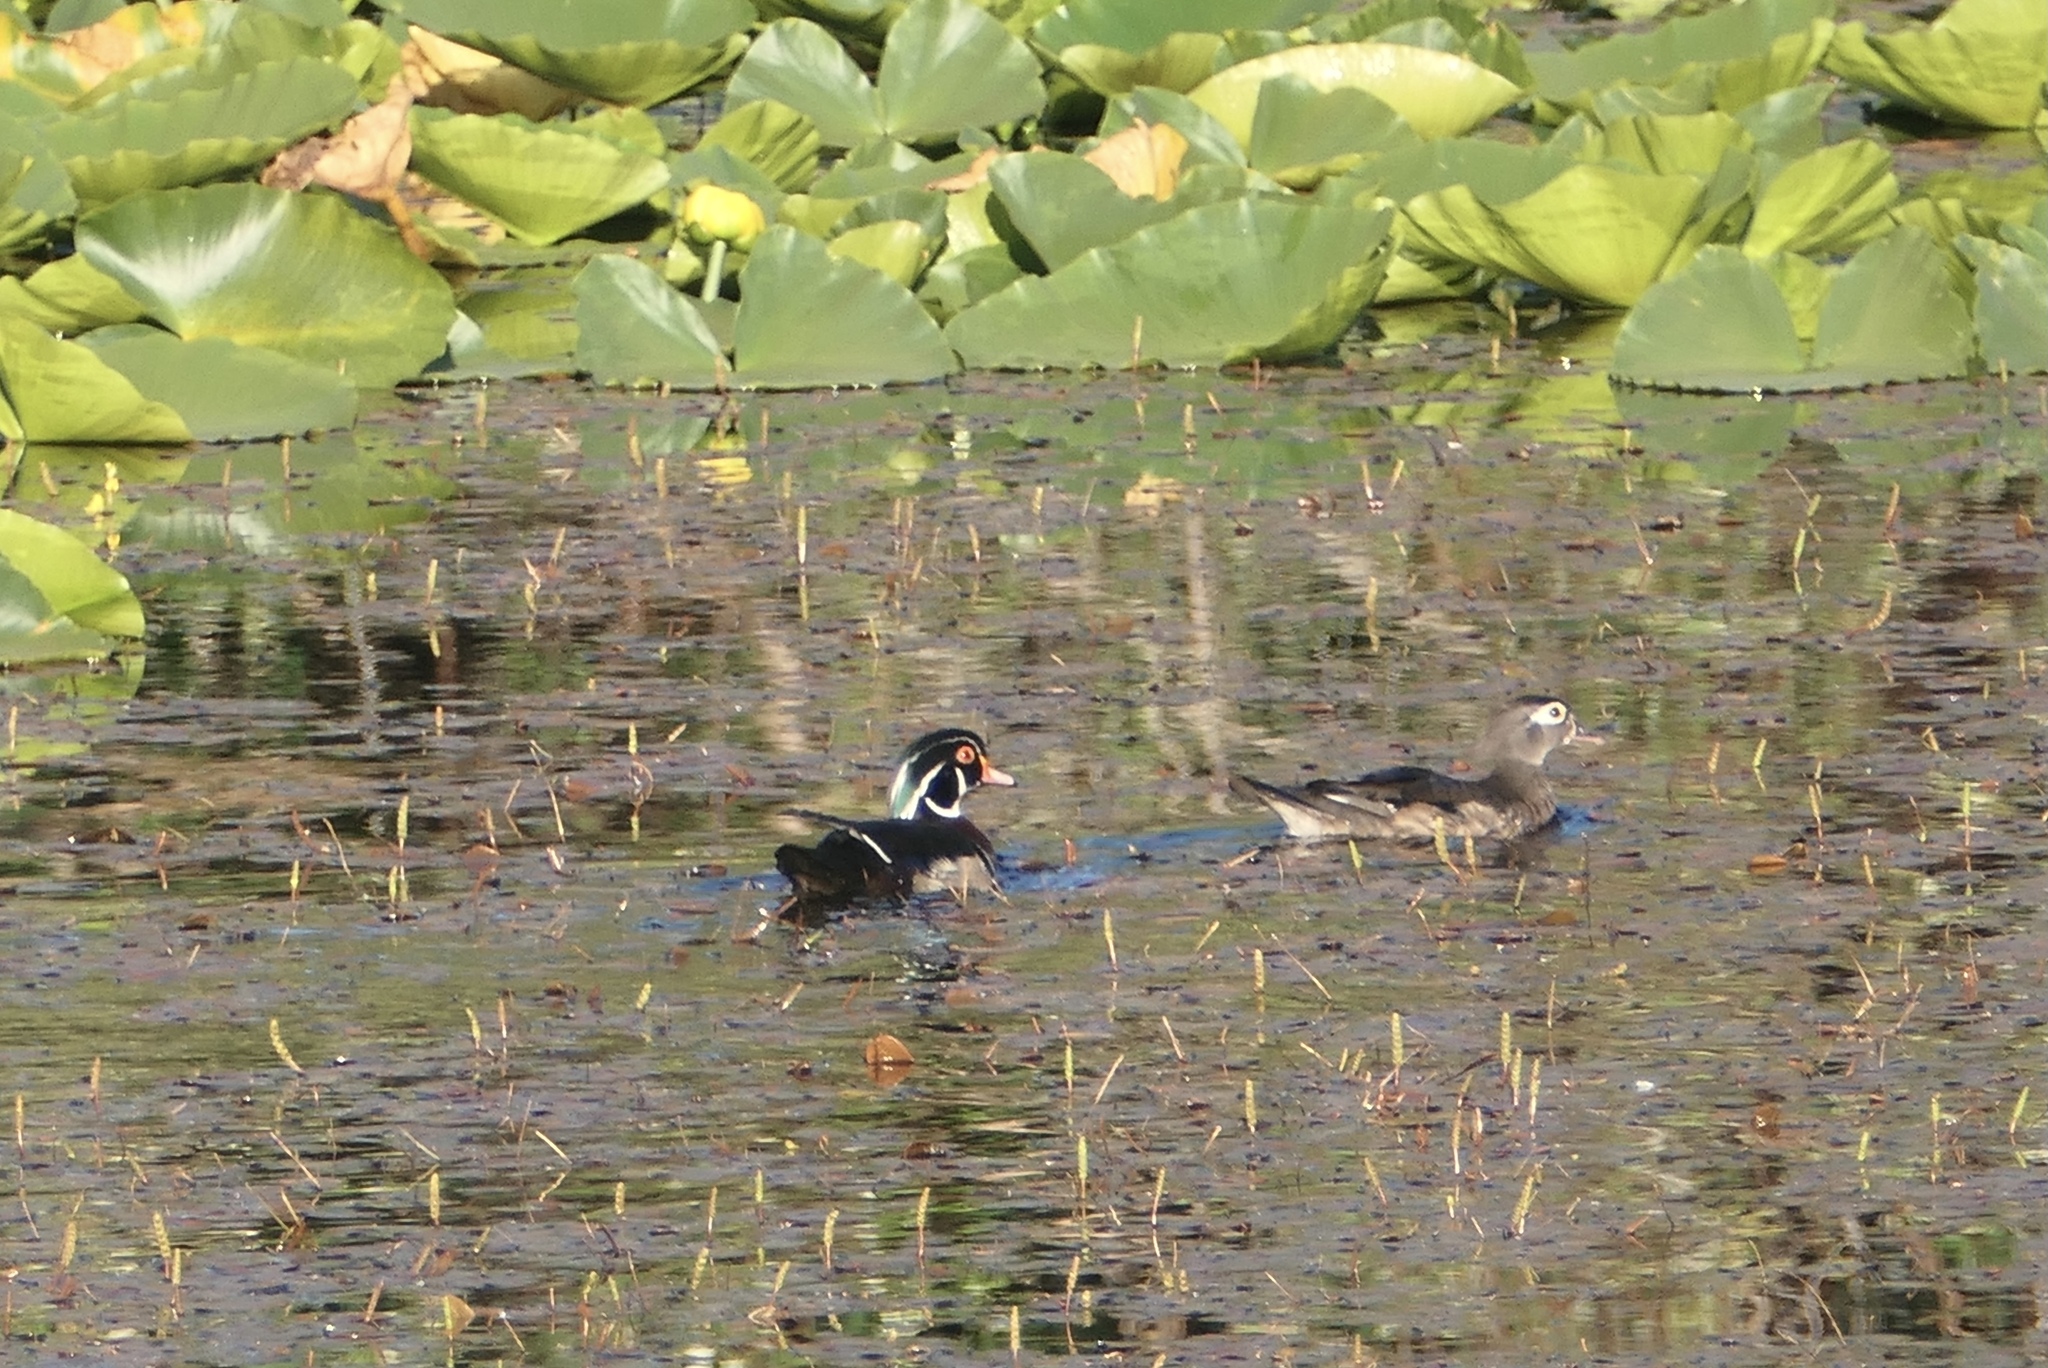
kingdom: Animalia
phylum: Chordata
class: Aves
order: Anseriformes
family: Anatidae
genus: Aix
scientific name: Aix sponsa
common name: Wood duck
